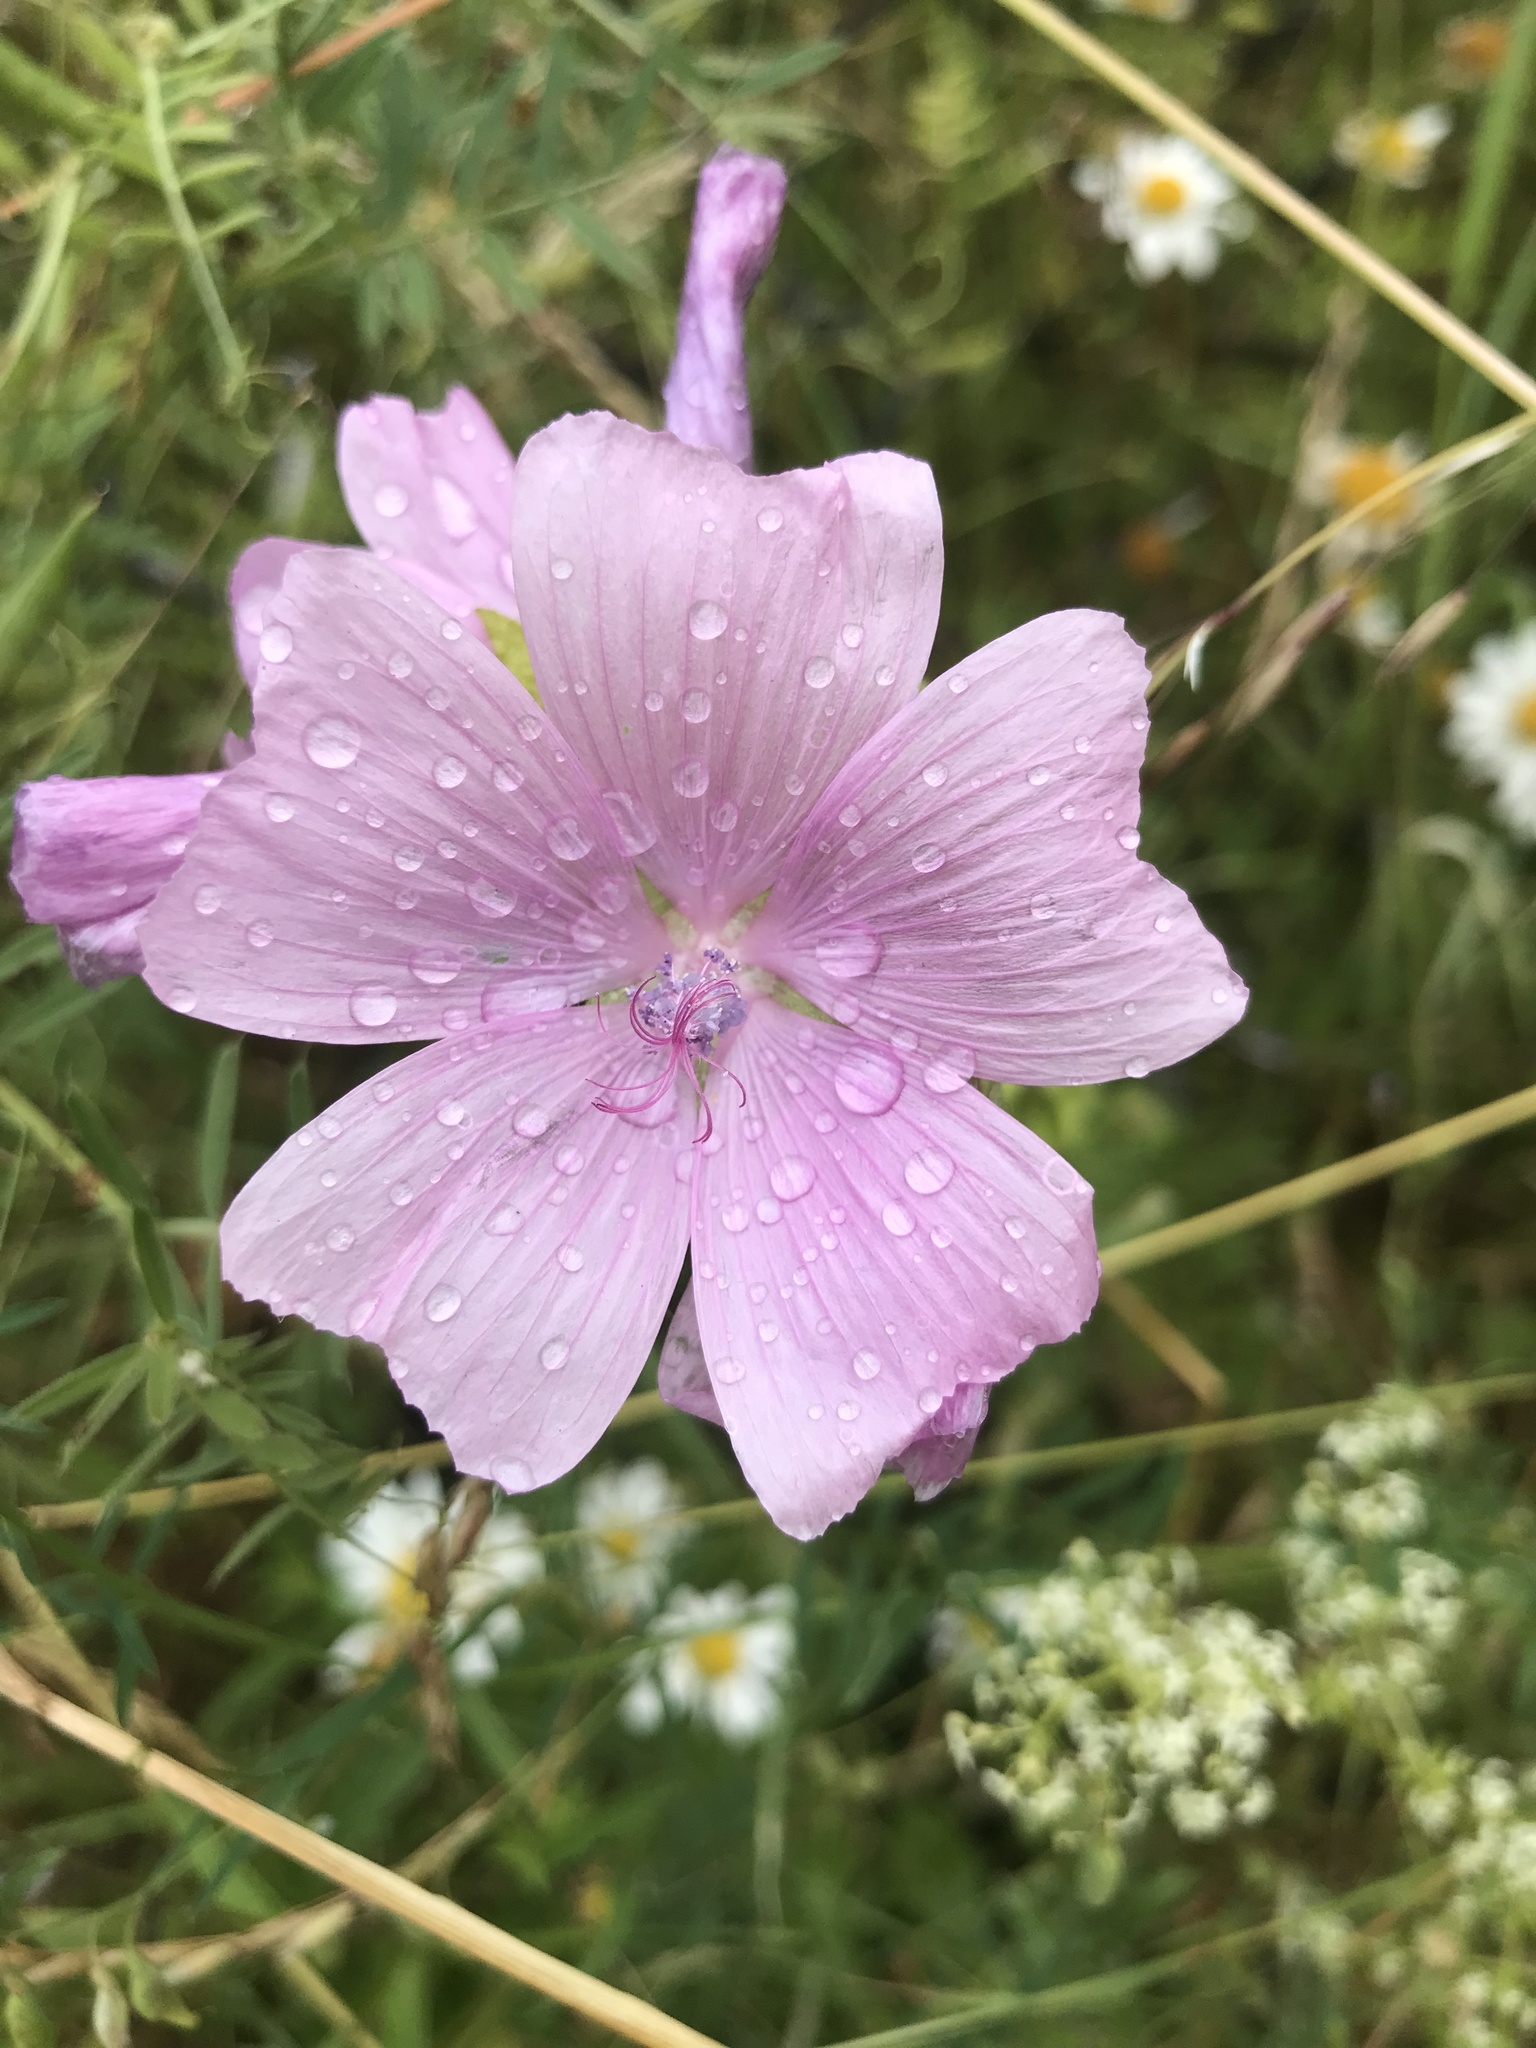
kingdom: Plantae
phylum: Tracheophyta
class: Magnoliopsida
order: Malvales
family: Malvaceae
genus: Malva
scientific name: Malva moschata
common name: Musk mallow
